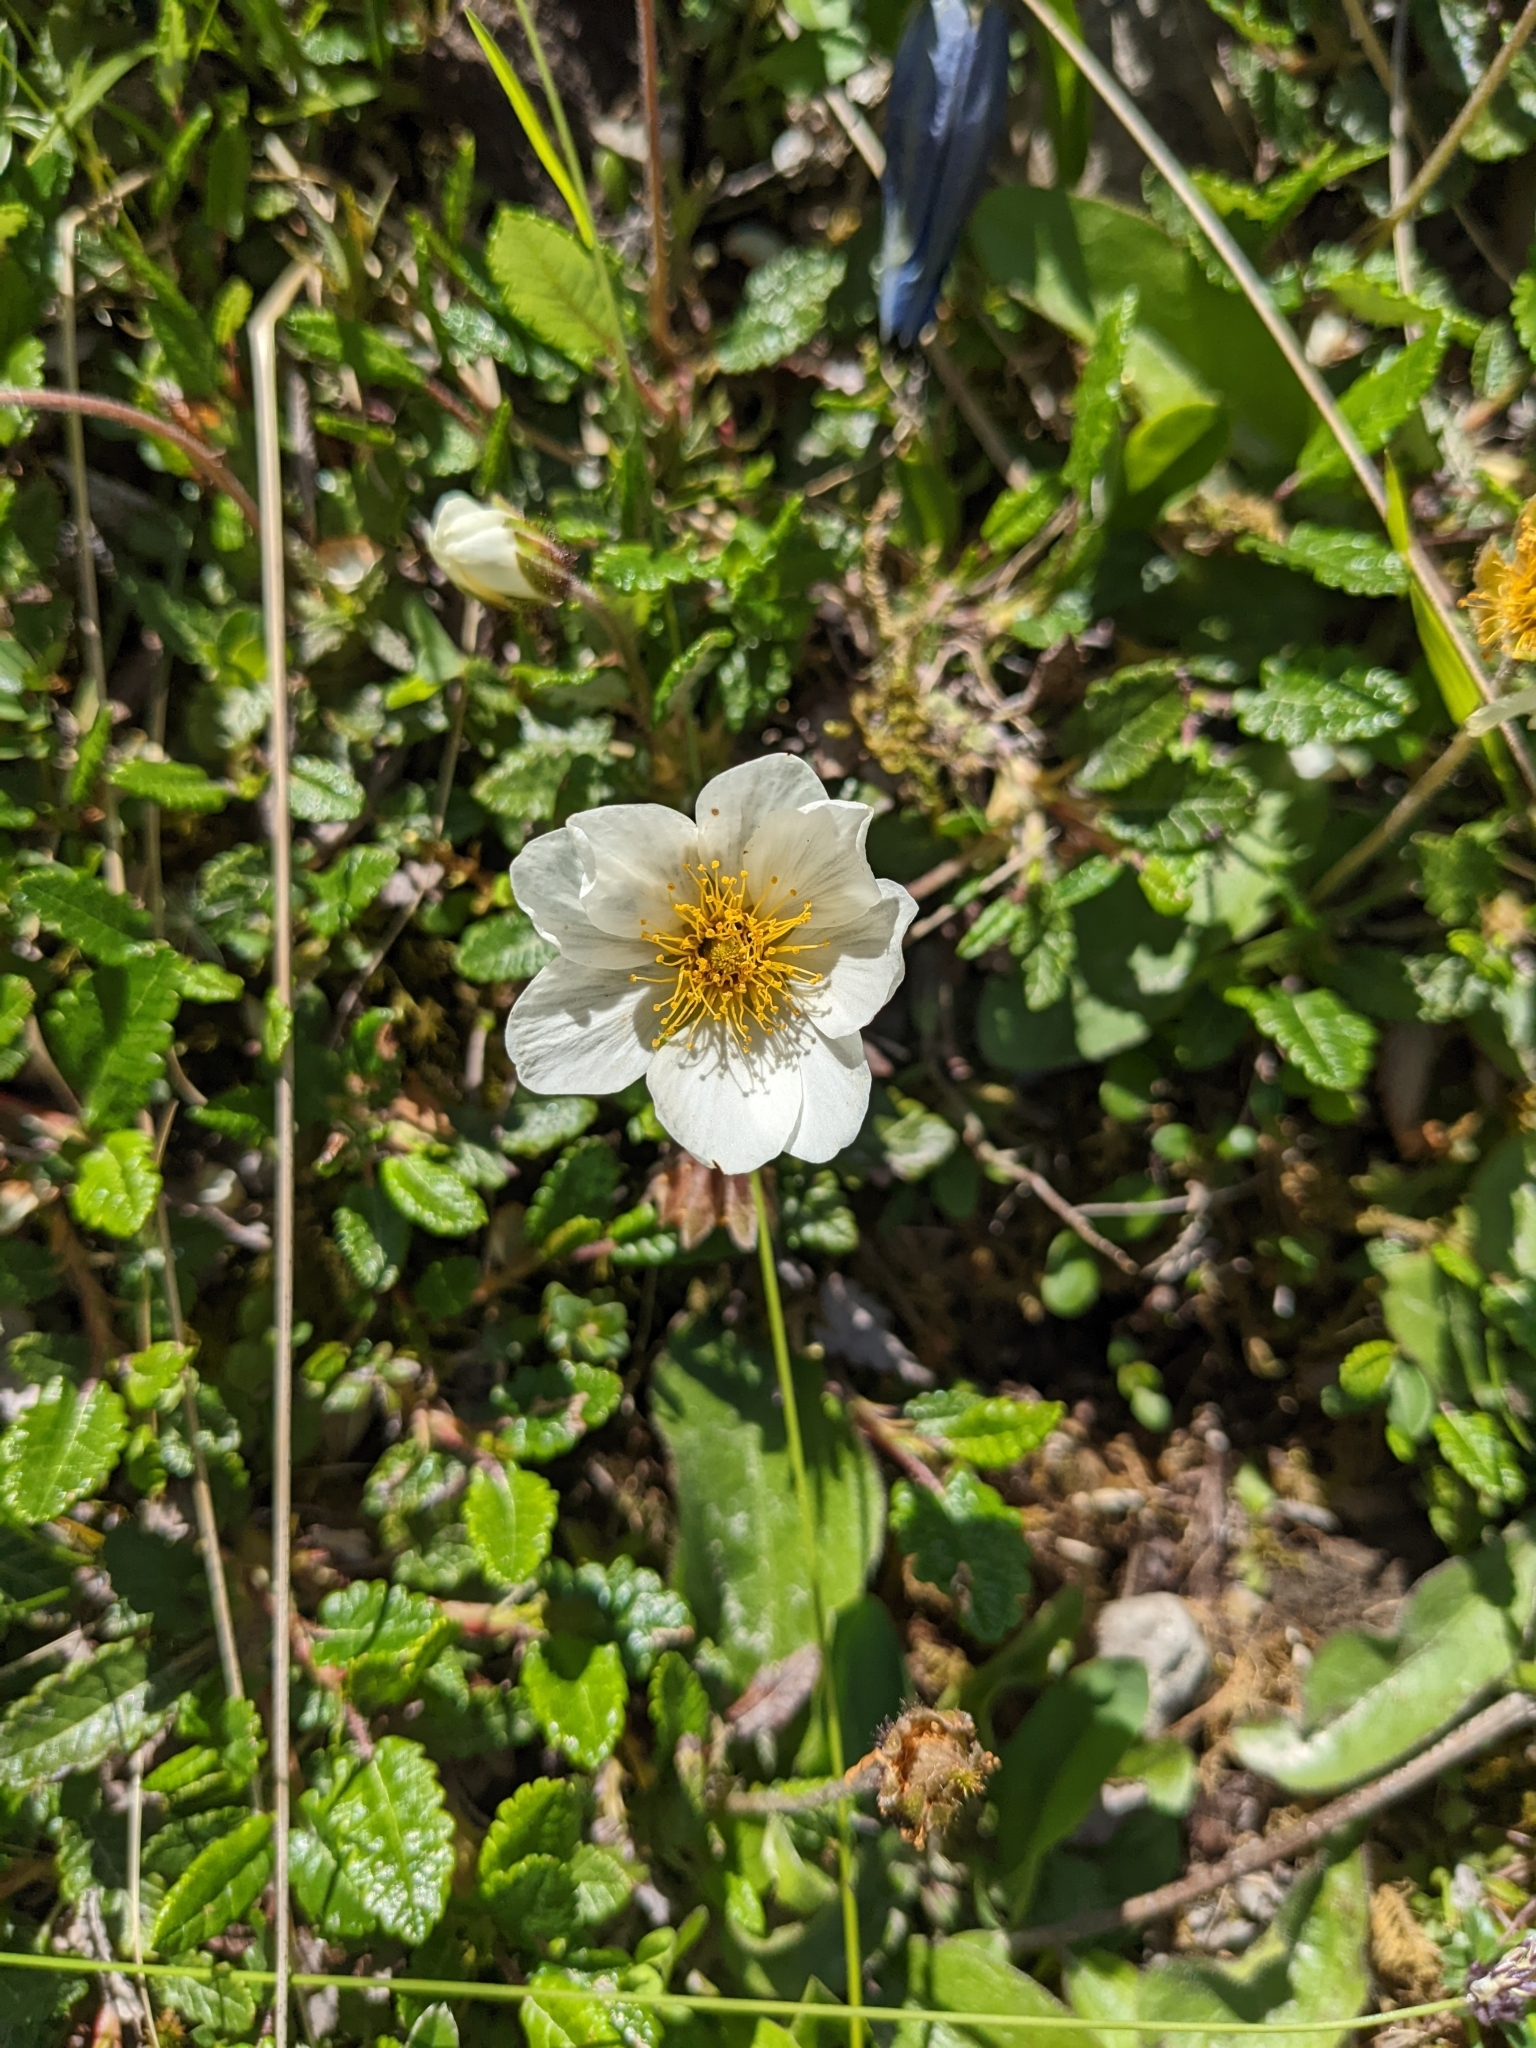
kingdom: Plantae
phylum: Tracheophyta
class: Magnoliopsida
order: Rosales
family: Rosaceae
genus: Dryas
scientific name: Dryas octopetala
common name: Eight-petal mountain-avens
